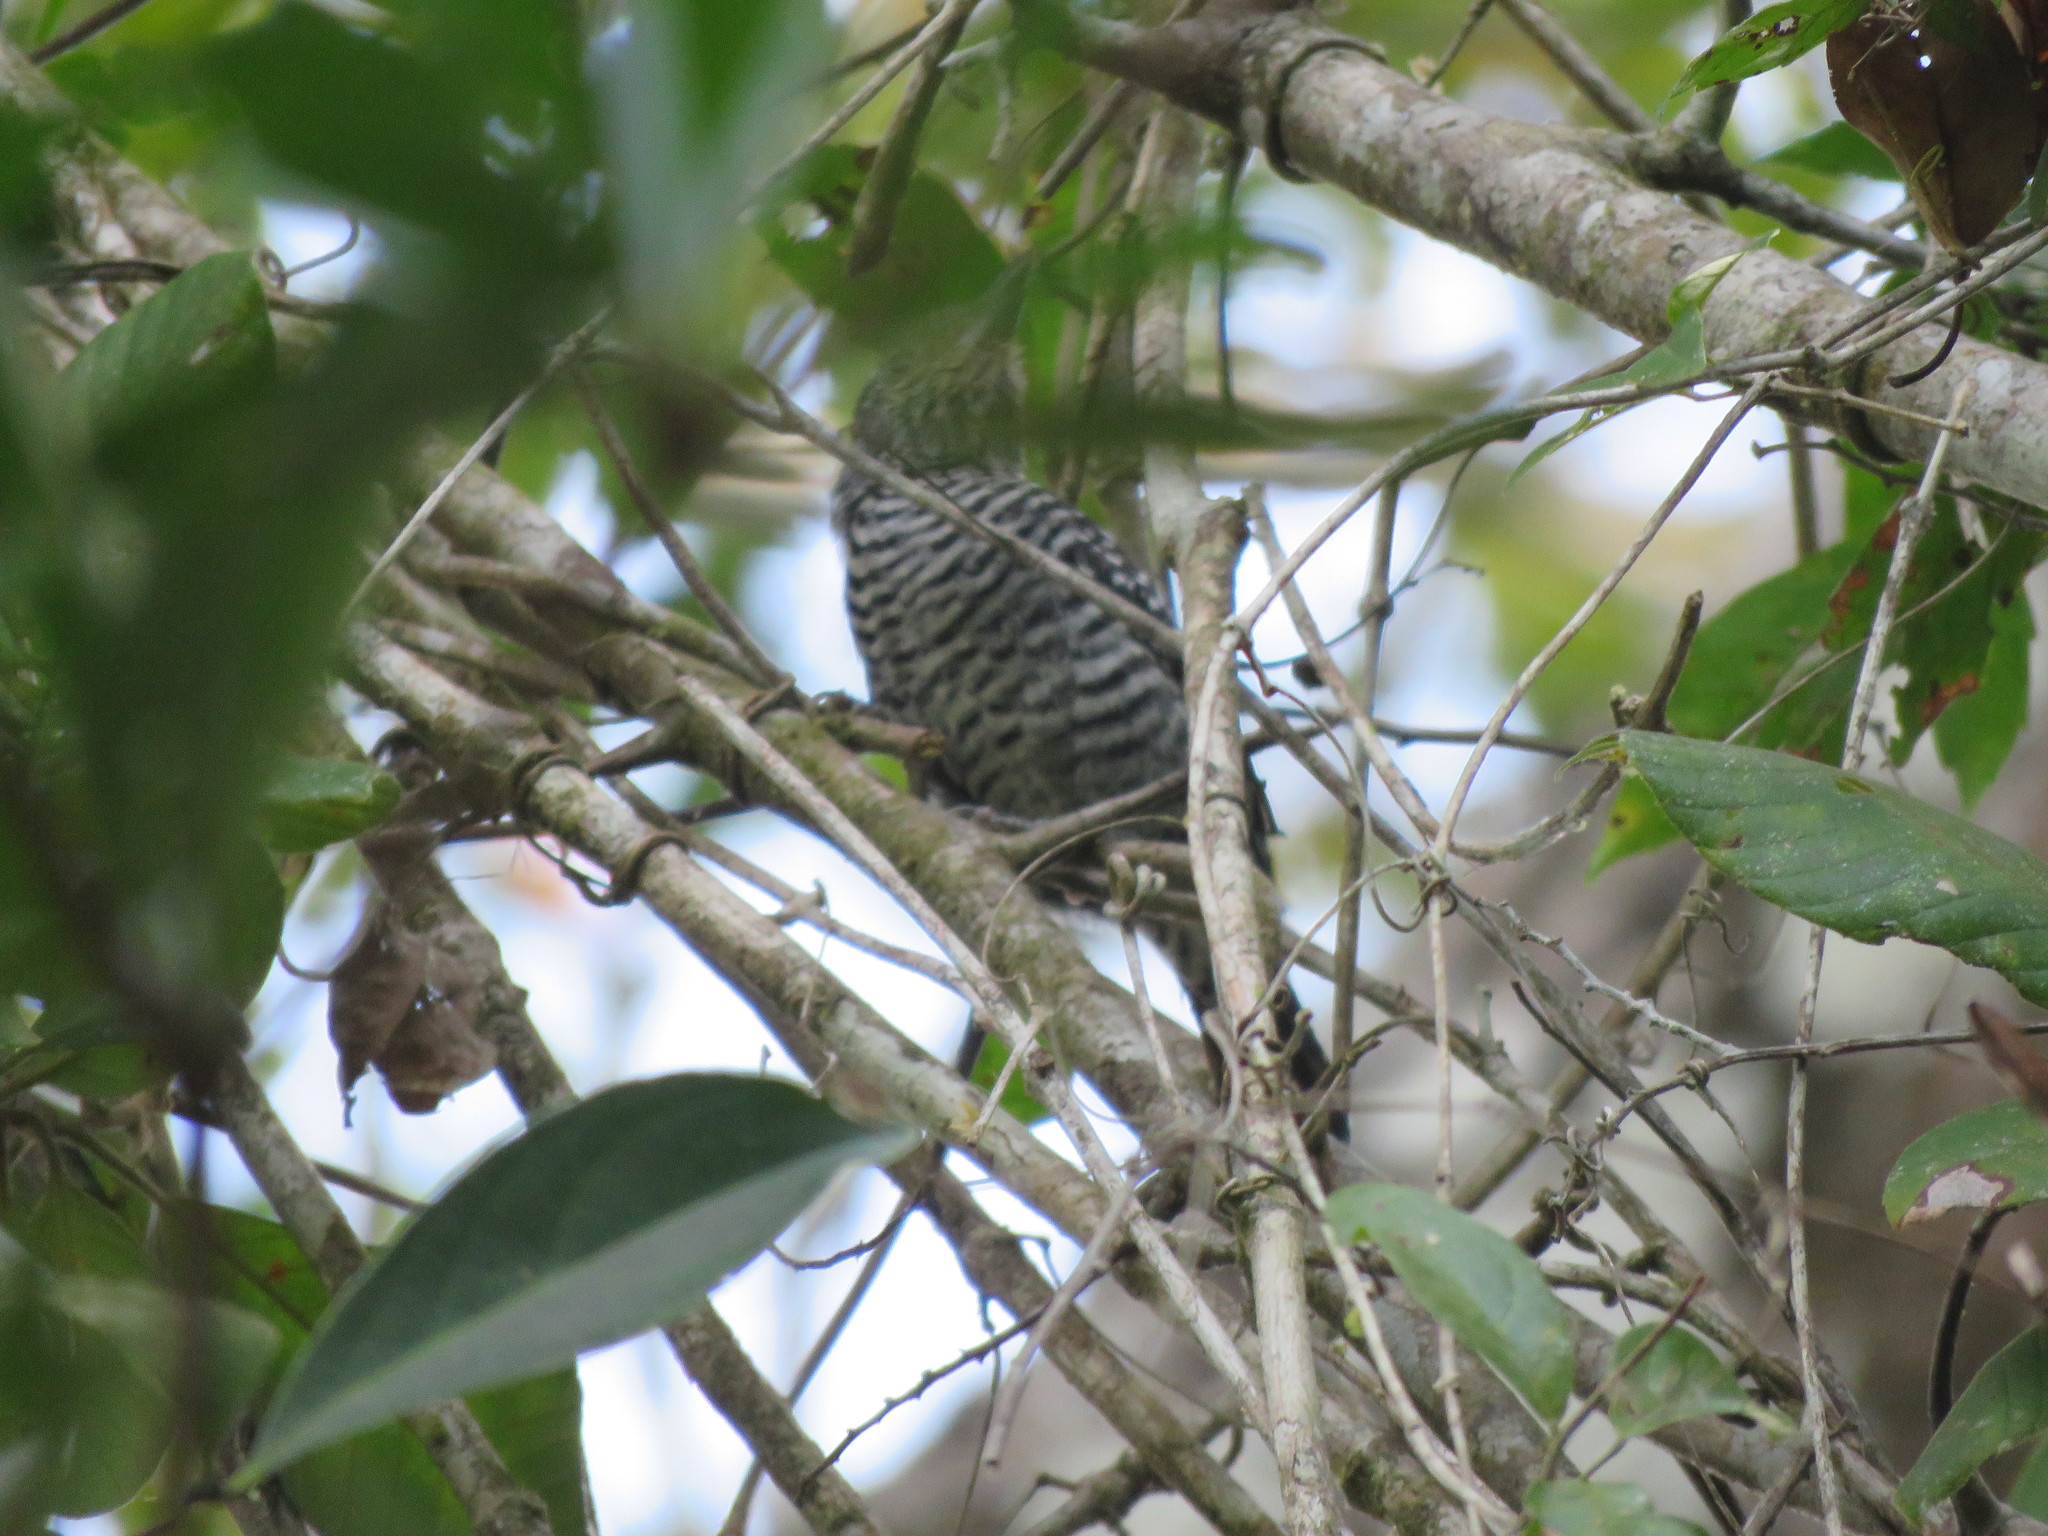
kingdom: Animalia
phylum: Chordata
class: Aves
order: Passeriformes
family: Thamnophilidae
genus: Thamnophilus
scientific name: Thamnophilus doliatus
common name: Barred antshrike
